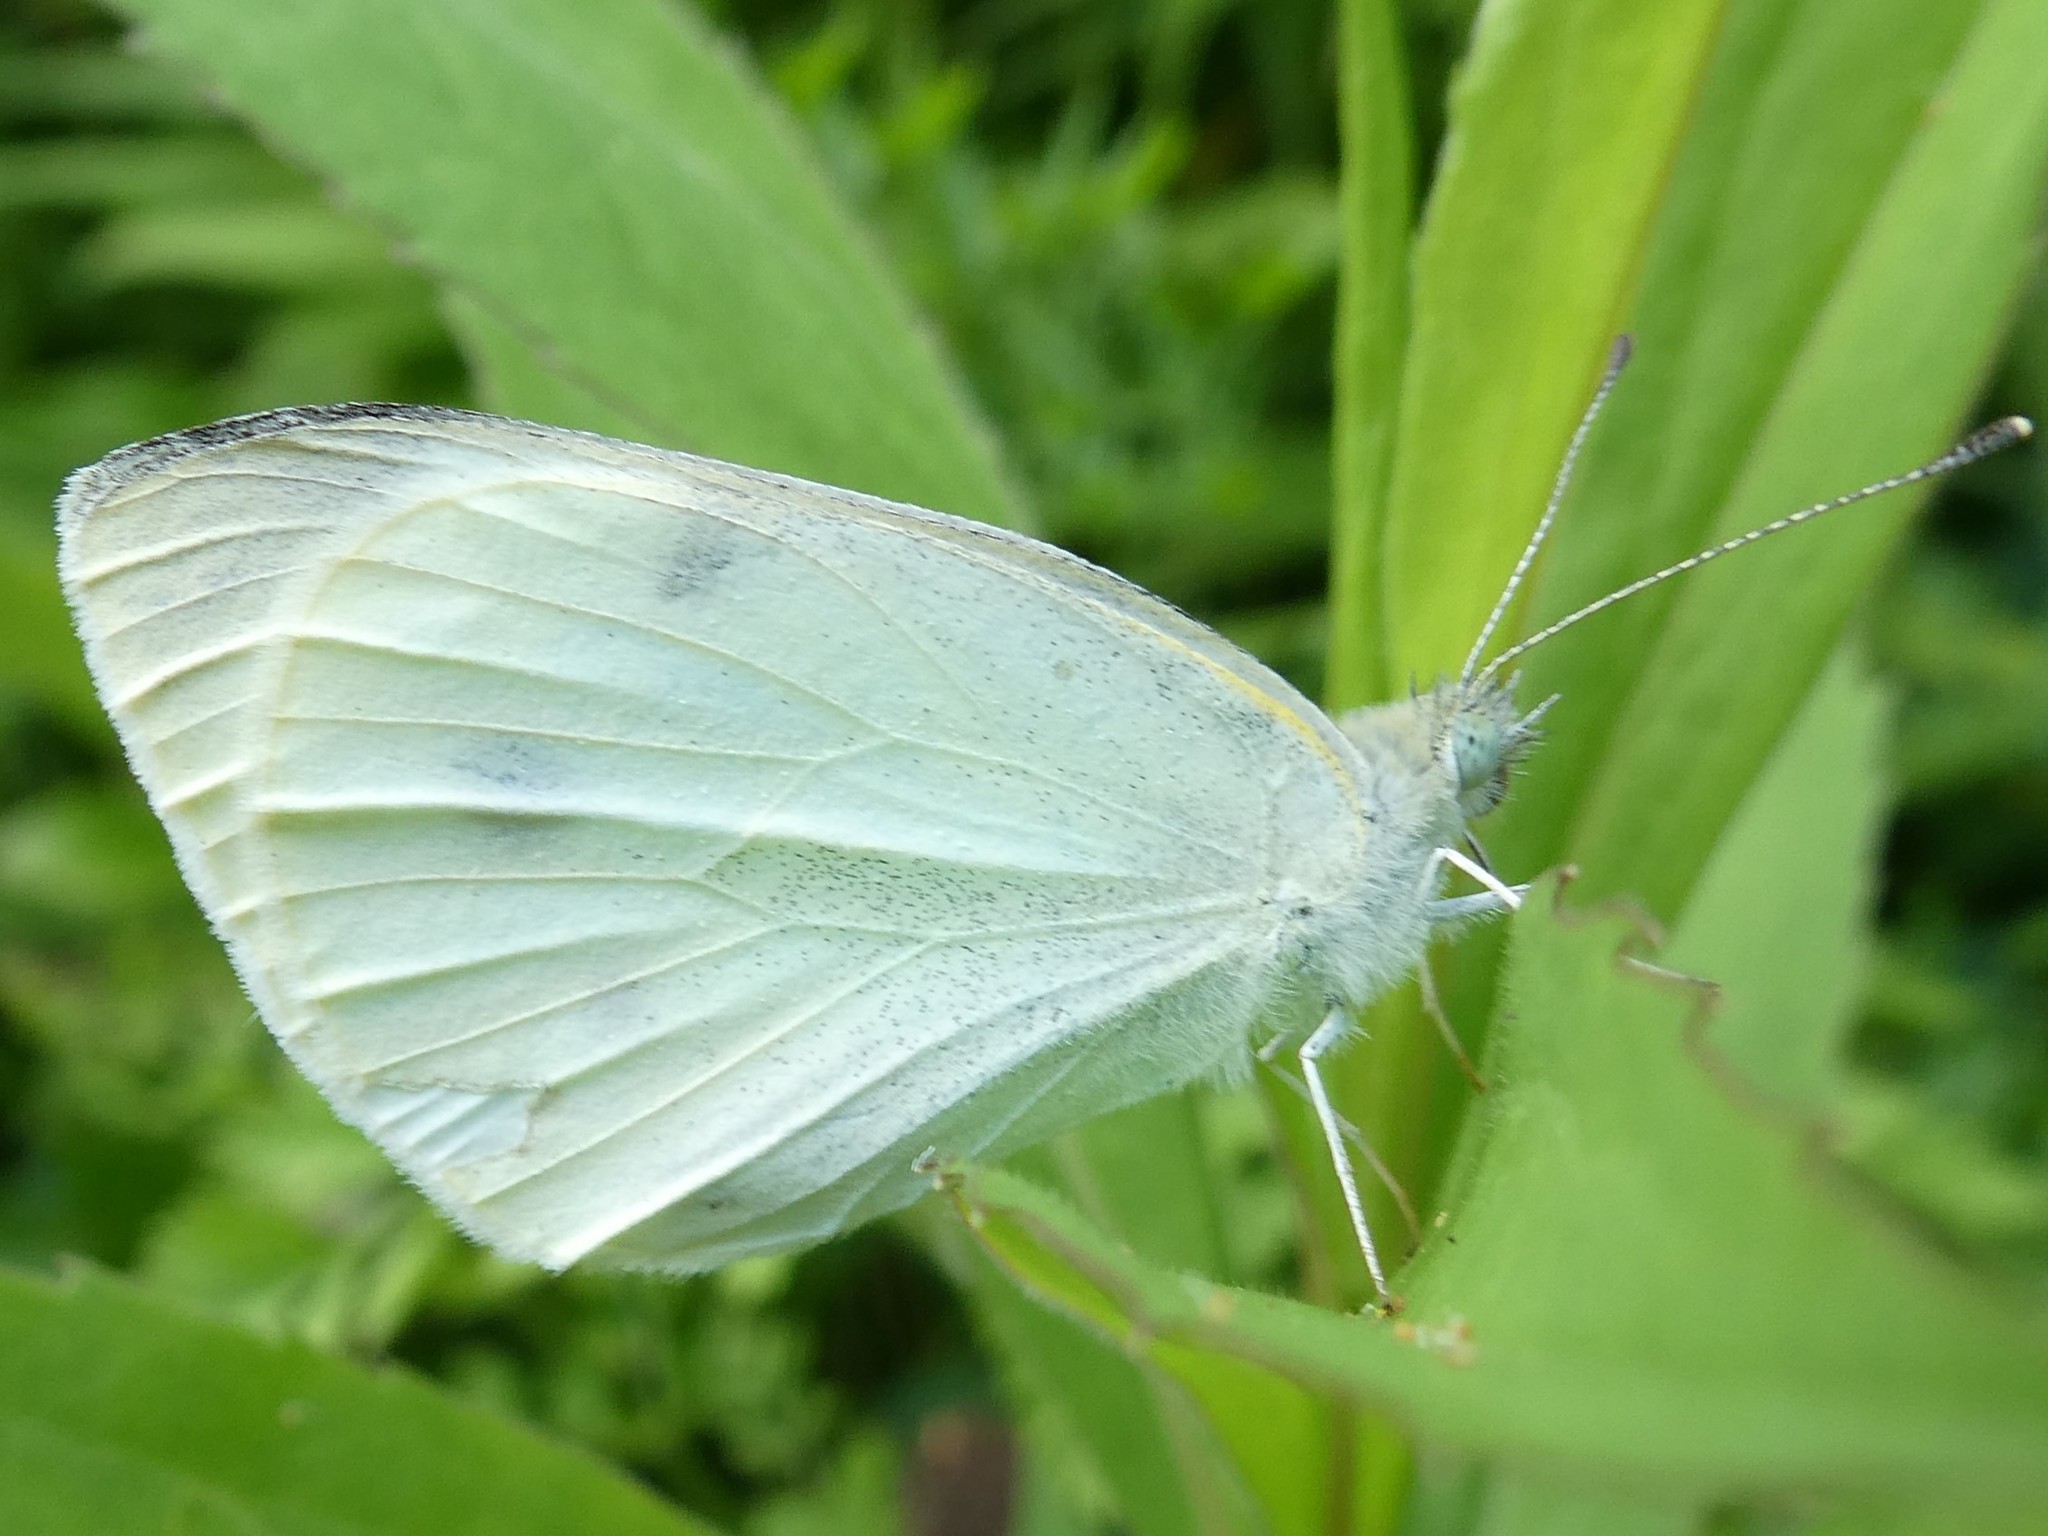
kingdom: Animalia
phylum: Arthropoda
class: Insecta
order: Lepidoptera
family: Pieridae
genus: Pieris
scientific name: Pieris rapae
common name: Small white
